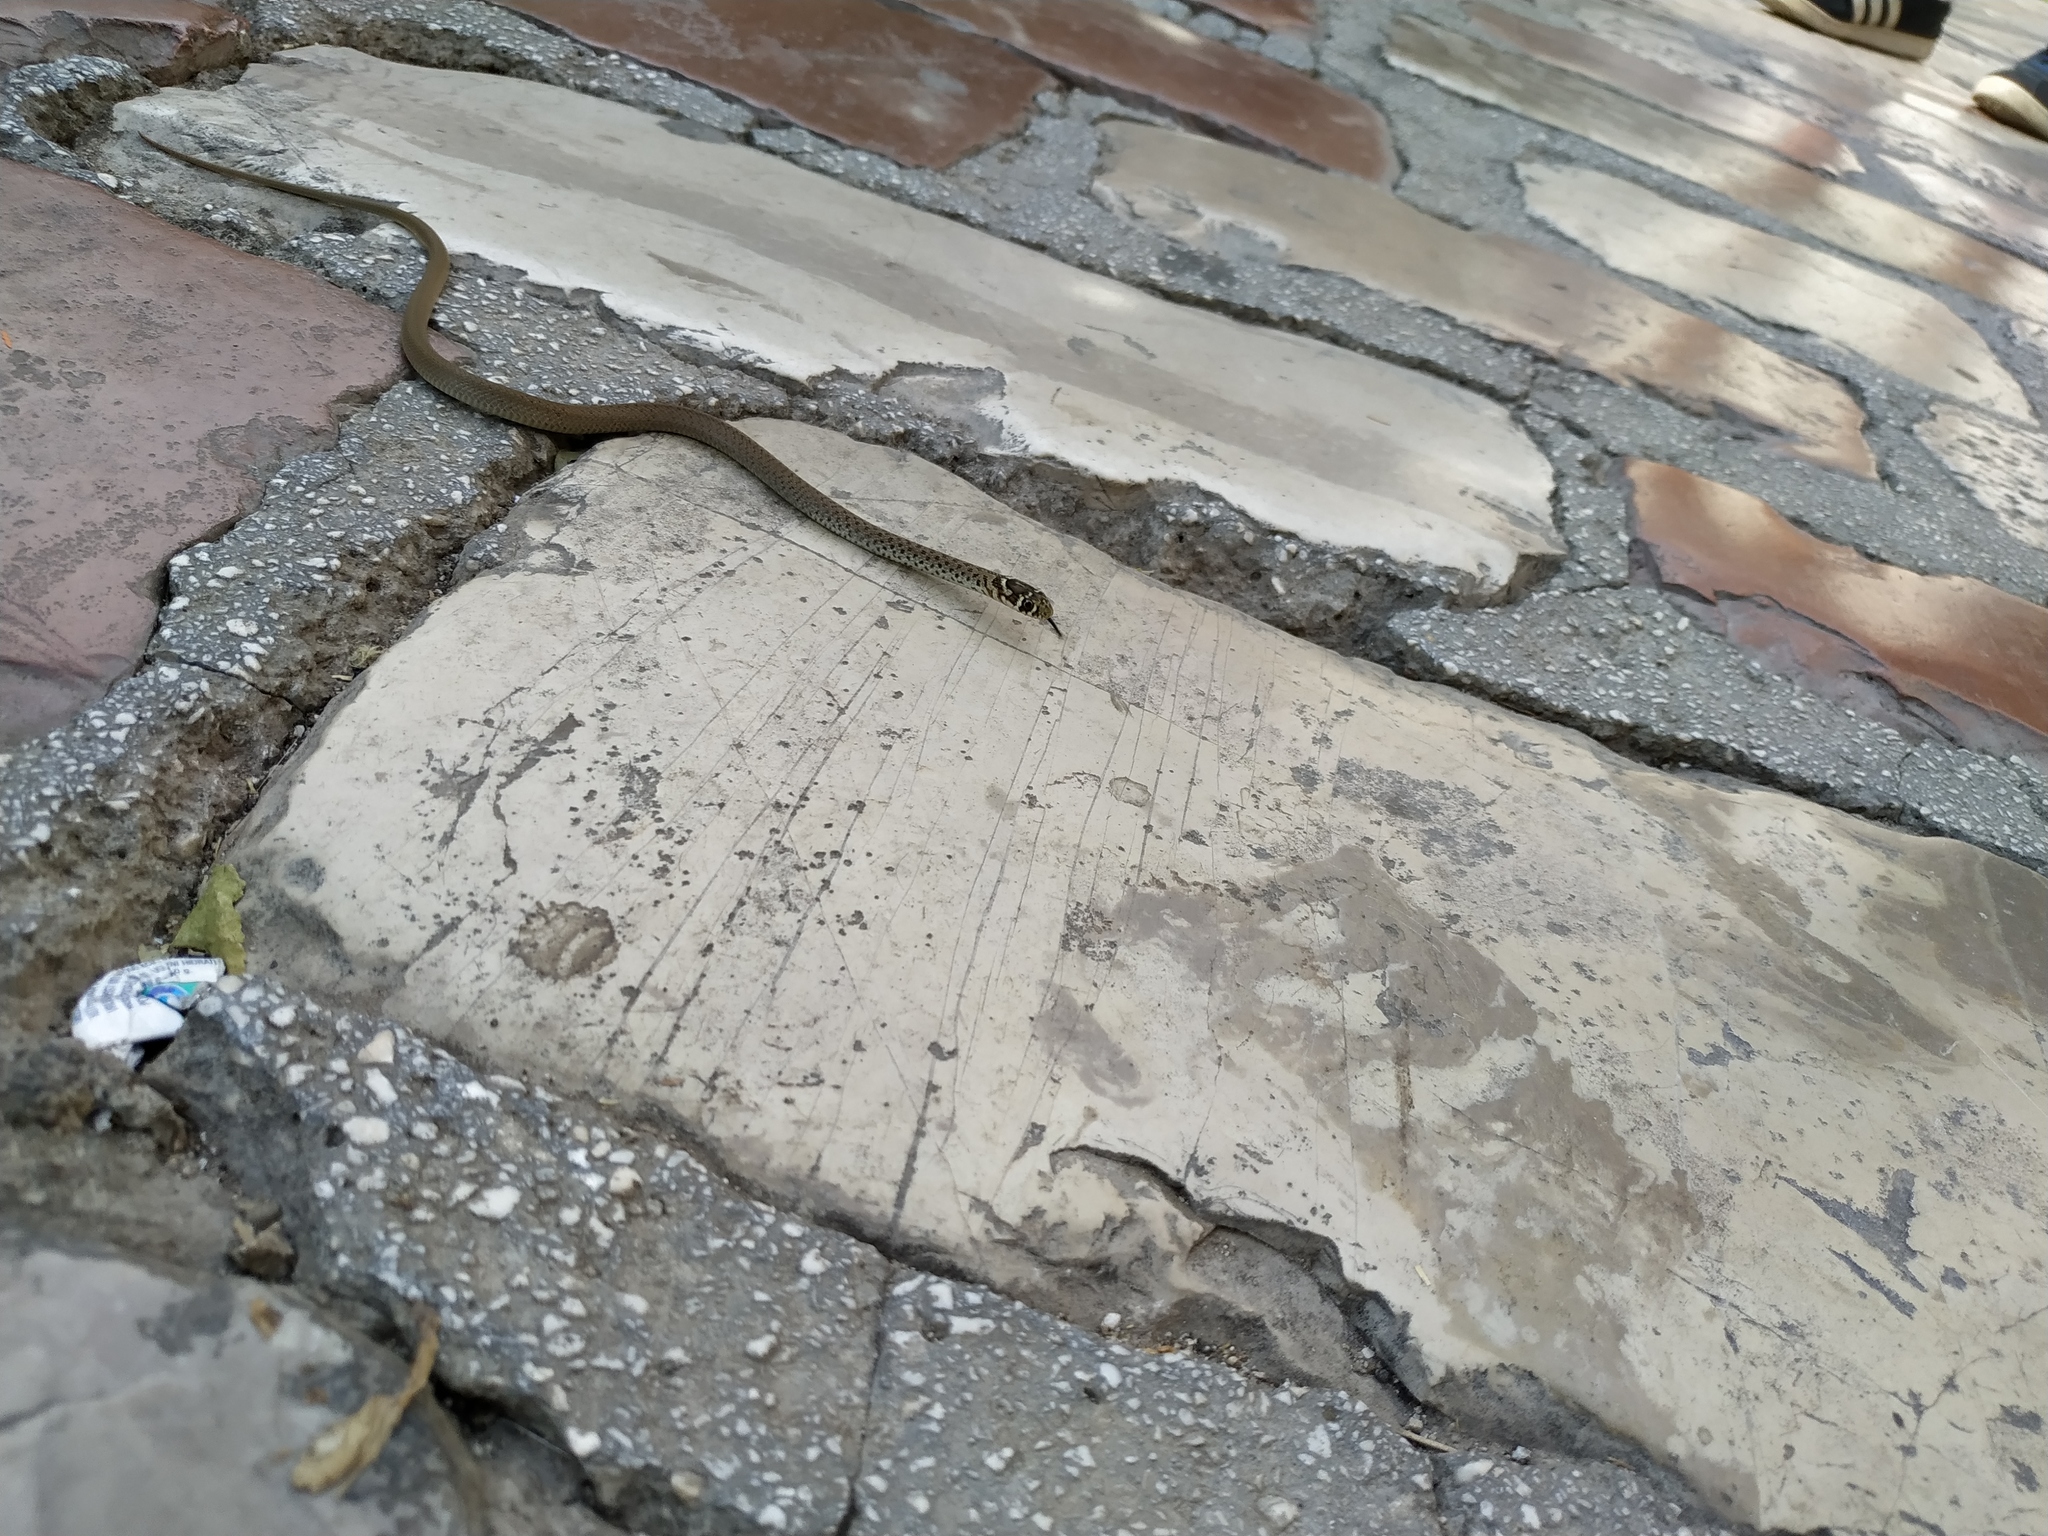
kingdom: Animalia
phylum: Chordata
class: Squamata
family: Colubridae
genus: Hierophis
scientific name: Hierophis gemonensis
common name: Balkan whip snake
